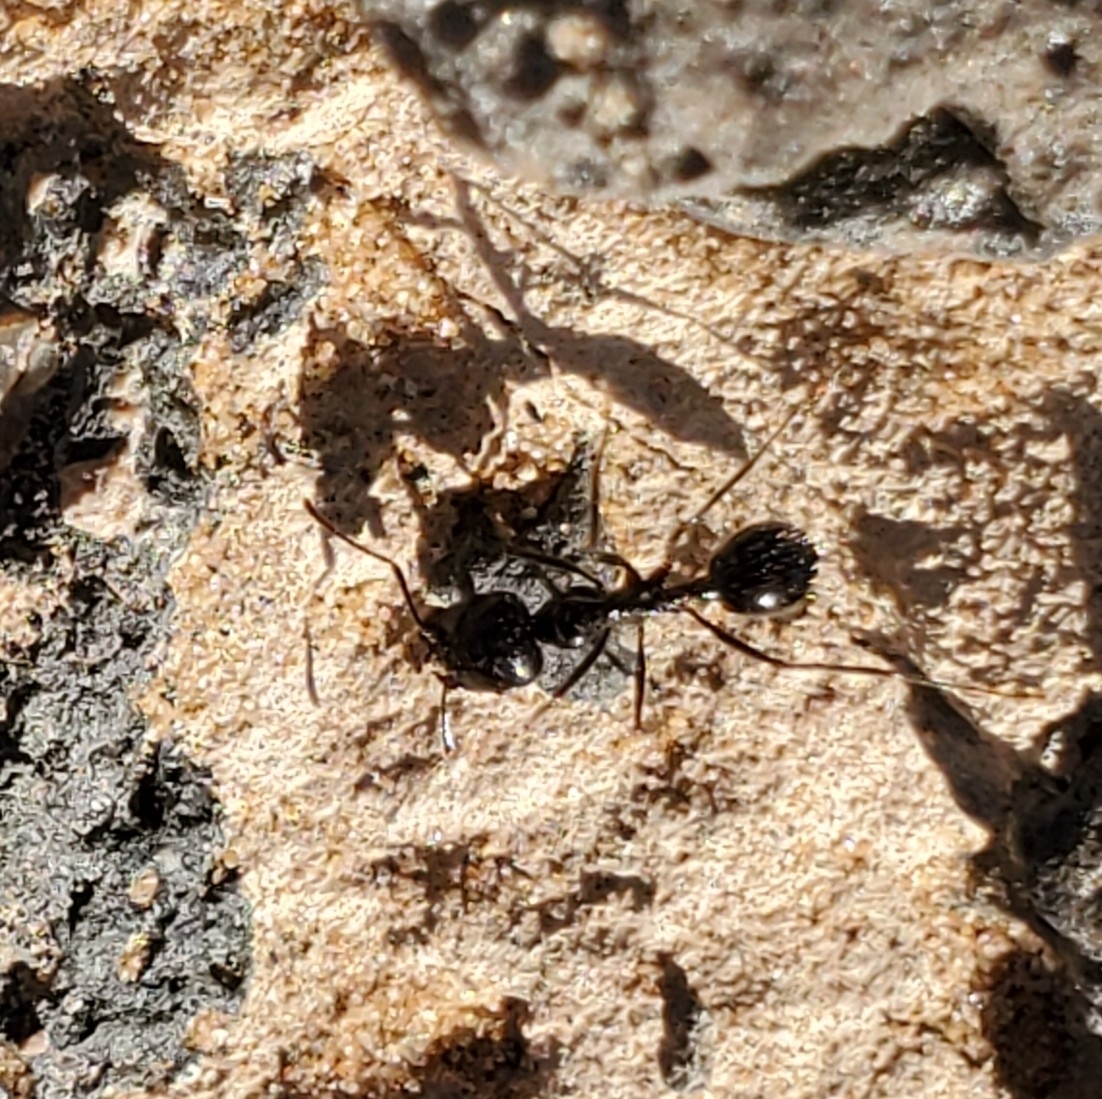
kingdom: Animalia
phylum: Arthropoda
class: Insecta
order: Hymenoptera
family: Formicidae
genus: Messor
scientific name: Messor pergandei
